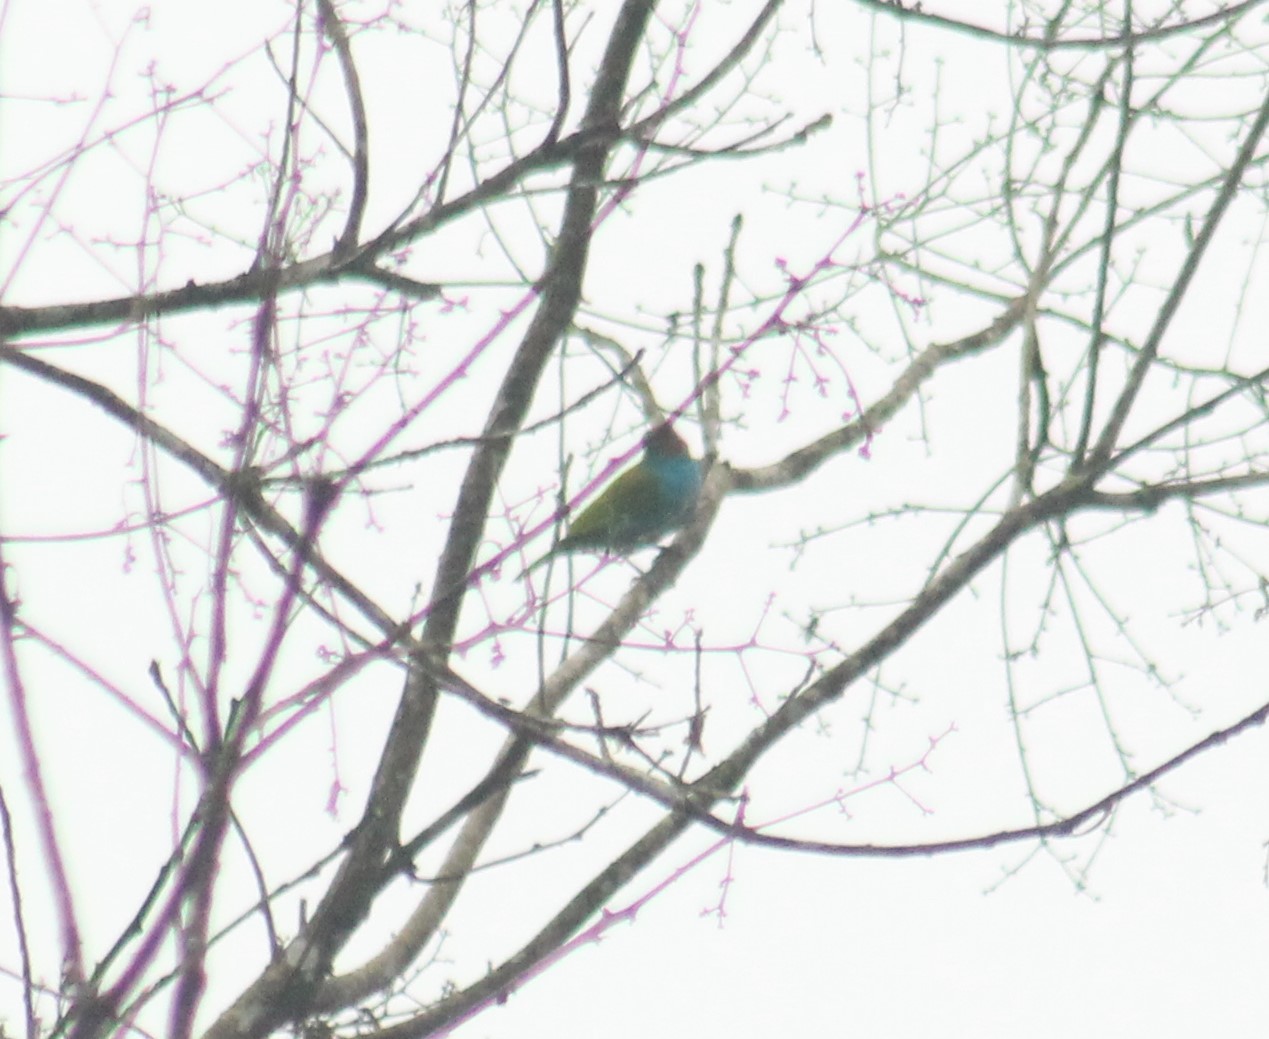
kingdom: Animalia
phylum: Chordata
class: Aves
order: Passeriformes
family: Thraupidae
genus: Tangara
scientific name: Tangara gyrola
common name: Bay-headed tanager
